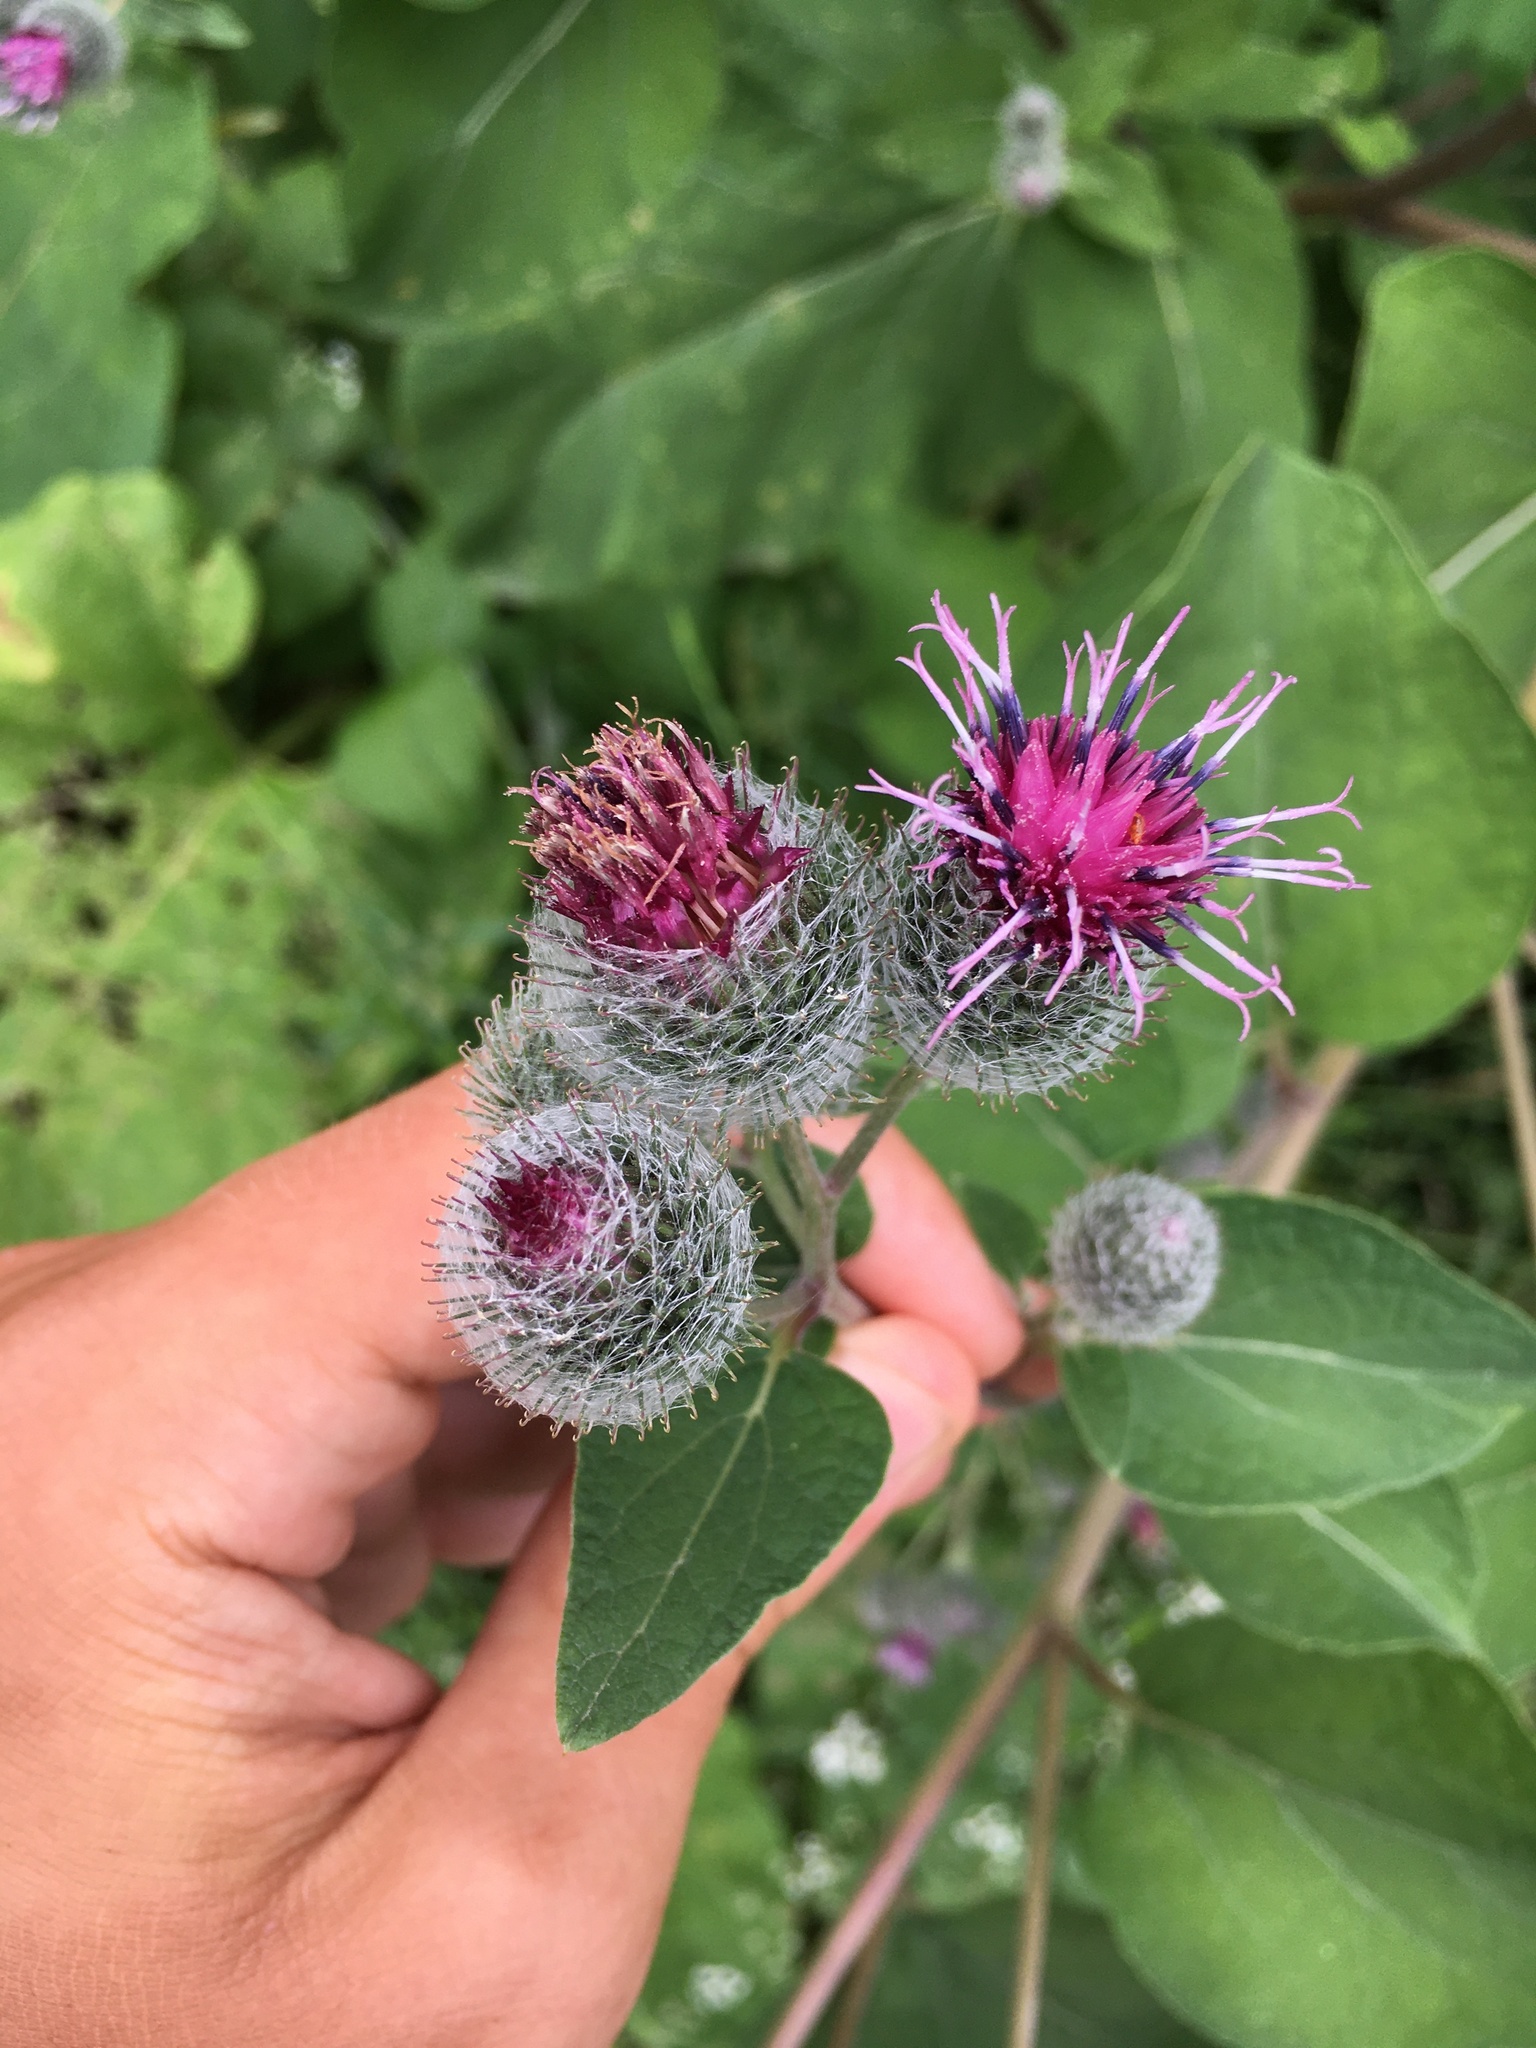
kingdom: Plantae
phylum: Tracheophyta
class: Magnoliopsida
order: Asterales
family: Asteraceae
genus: Arctium
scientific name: Arctium tomentosum
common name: Woolly burdock
